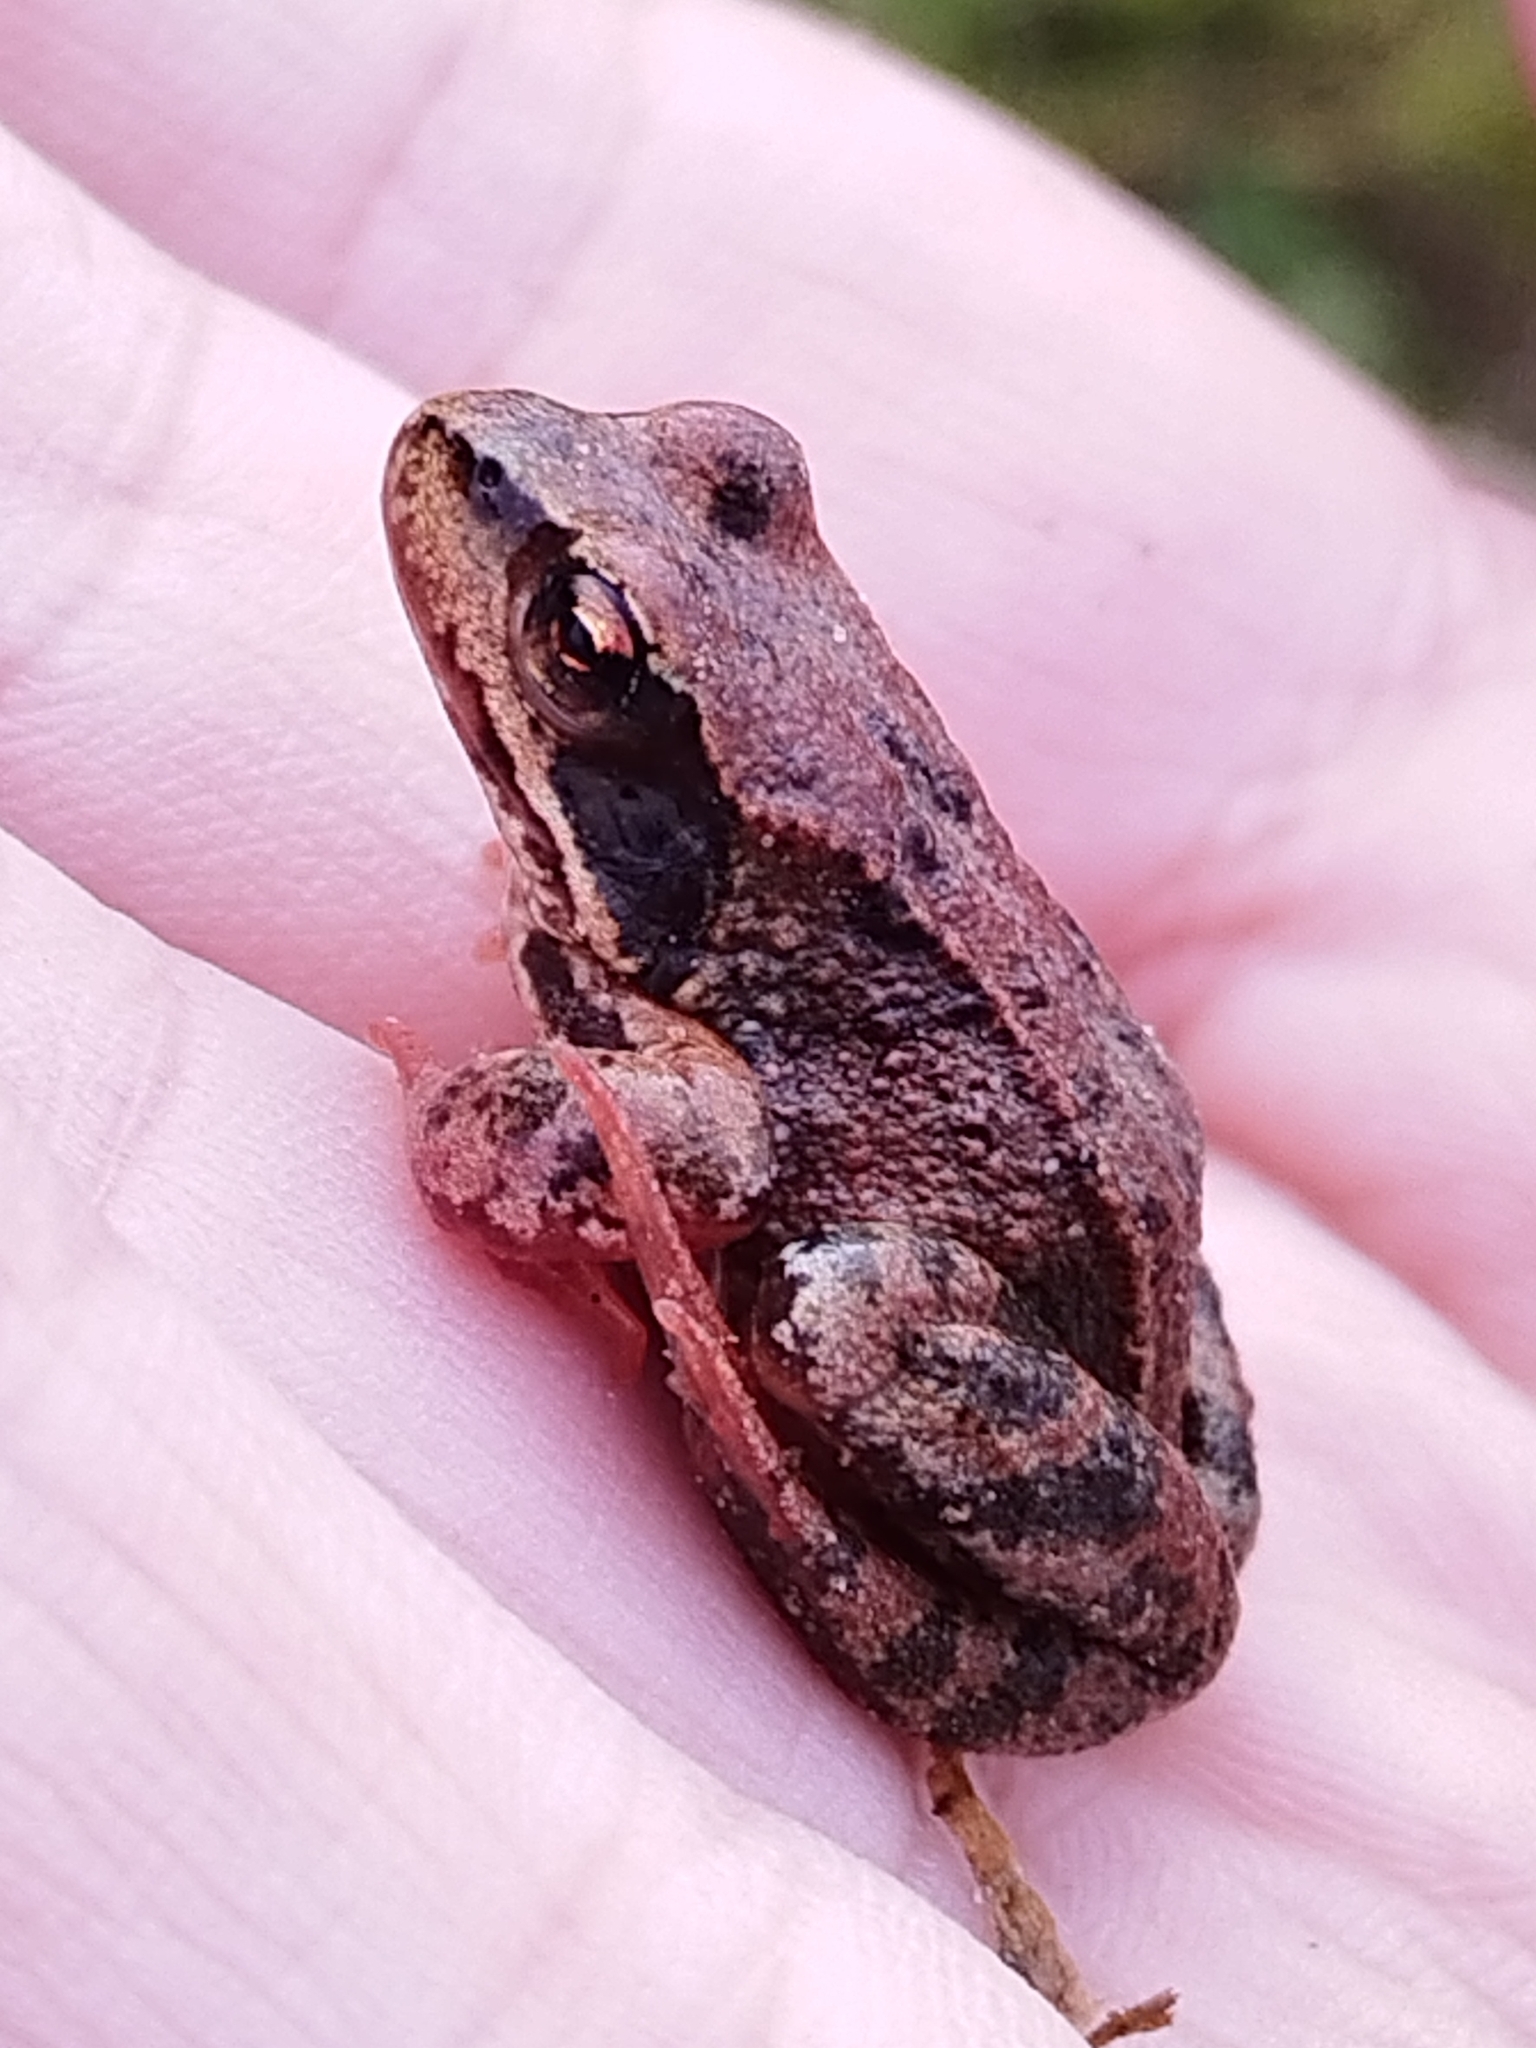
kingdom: Animalia
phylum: Chordata
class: Amphibia
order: Anura
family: Ranidae
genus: Rana
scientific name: Rana temporaria
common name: Common frog
